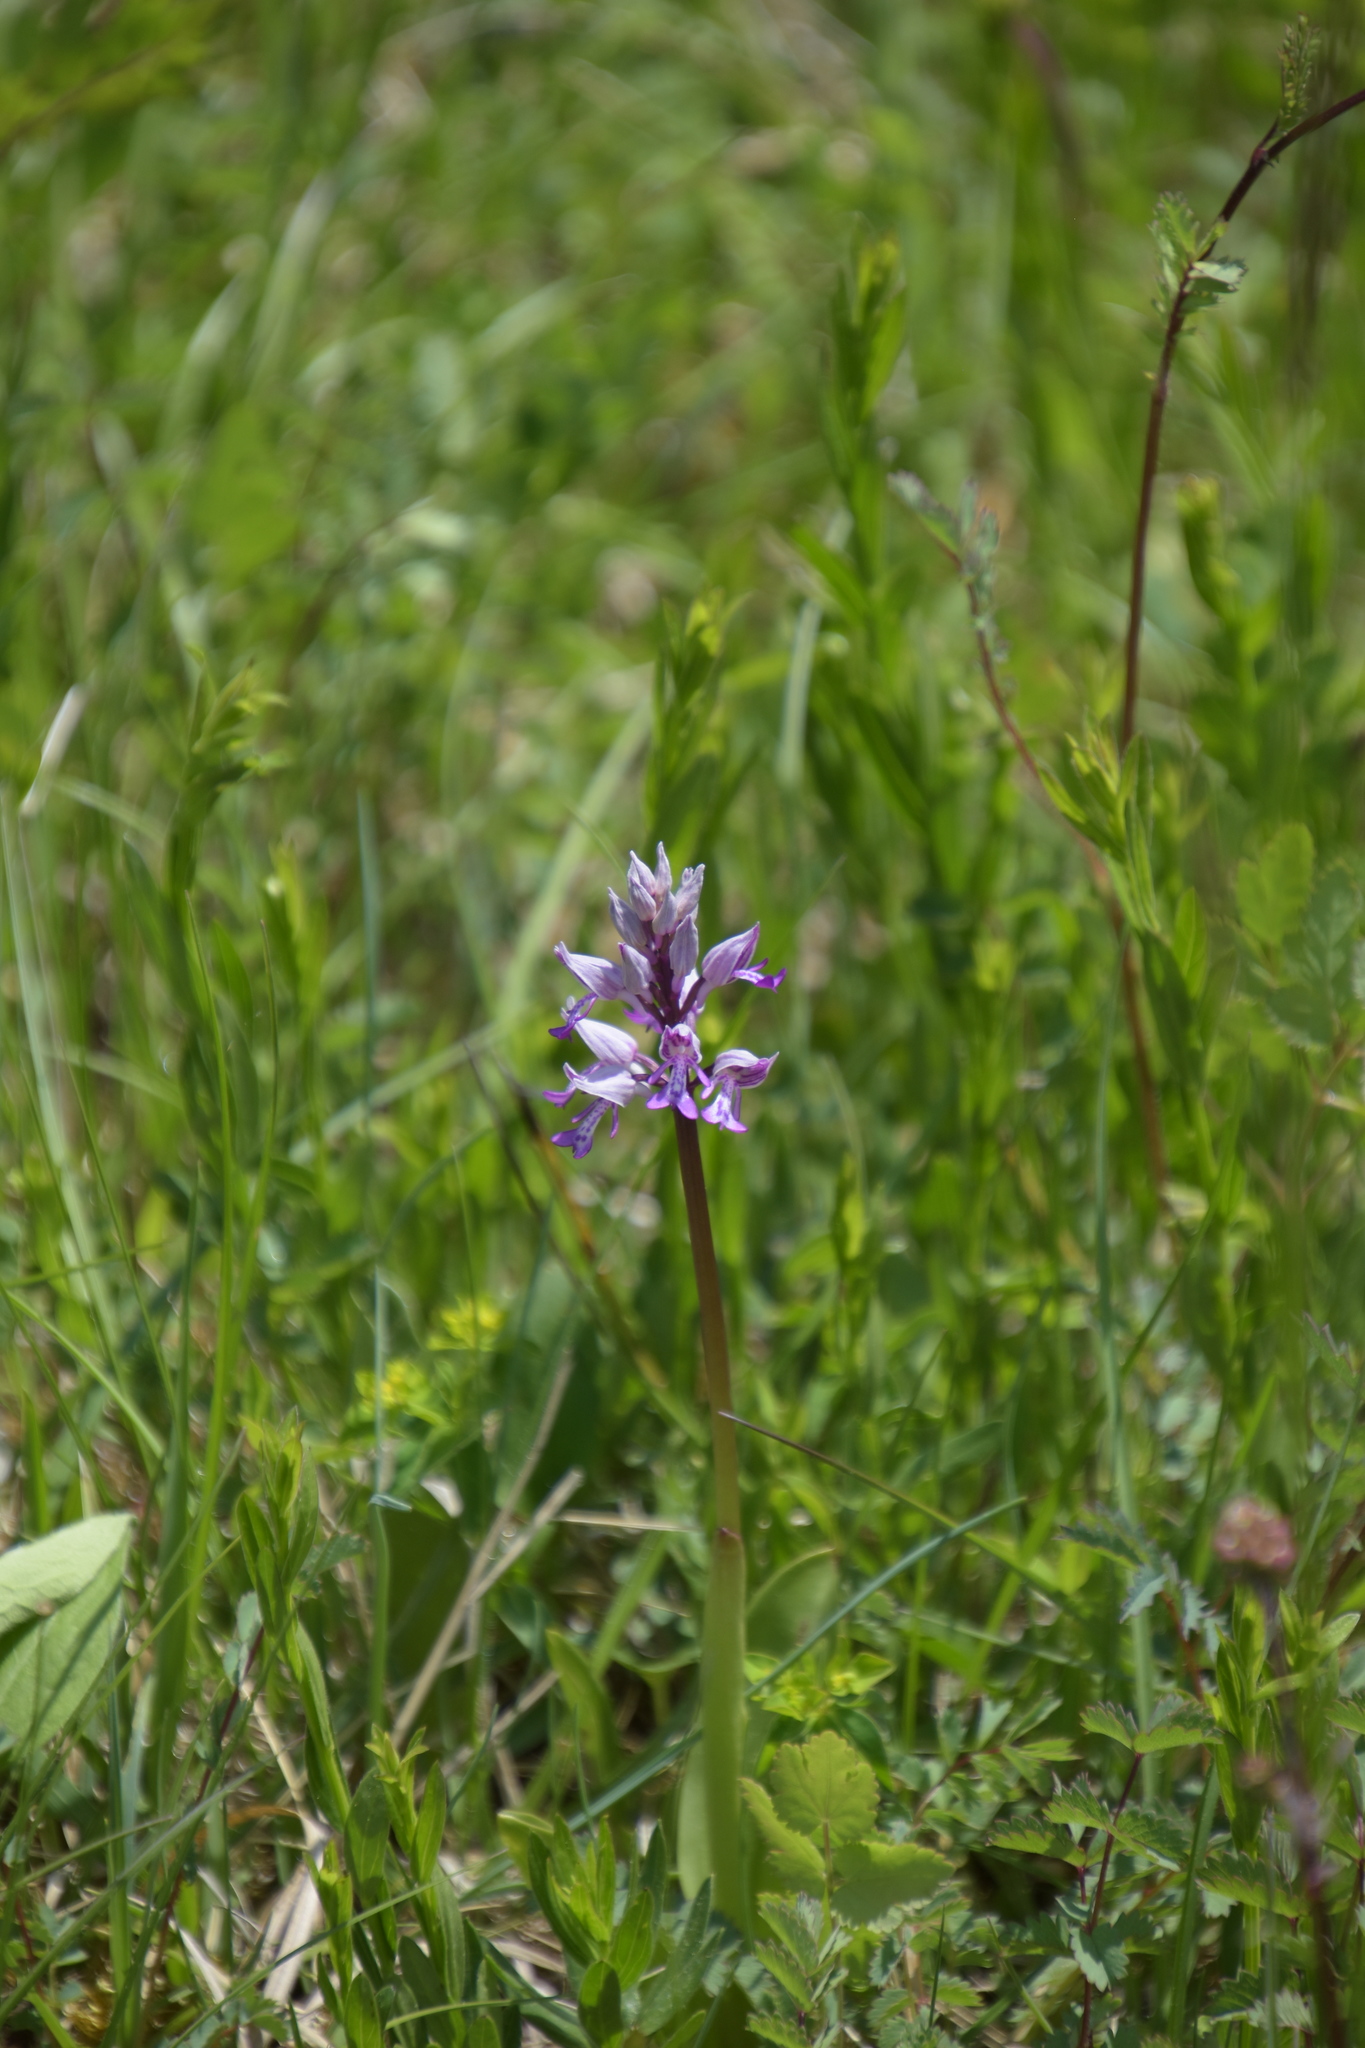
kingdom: Plantae
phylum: Tracheophyta
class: Liliopsida
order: Asparagales
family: Orchidaceae
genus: Orchis
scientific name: Orchis militaris
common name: Military orchid
